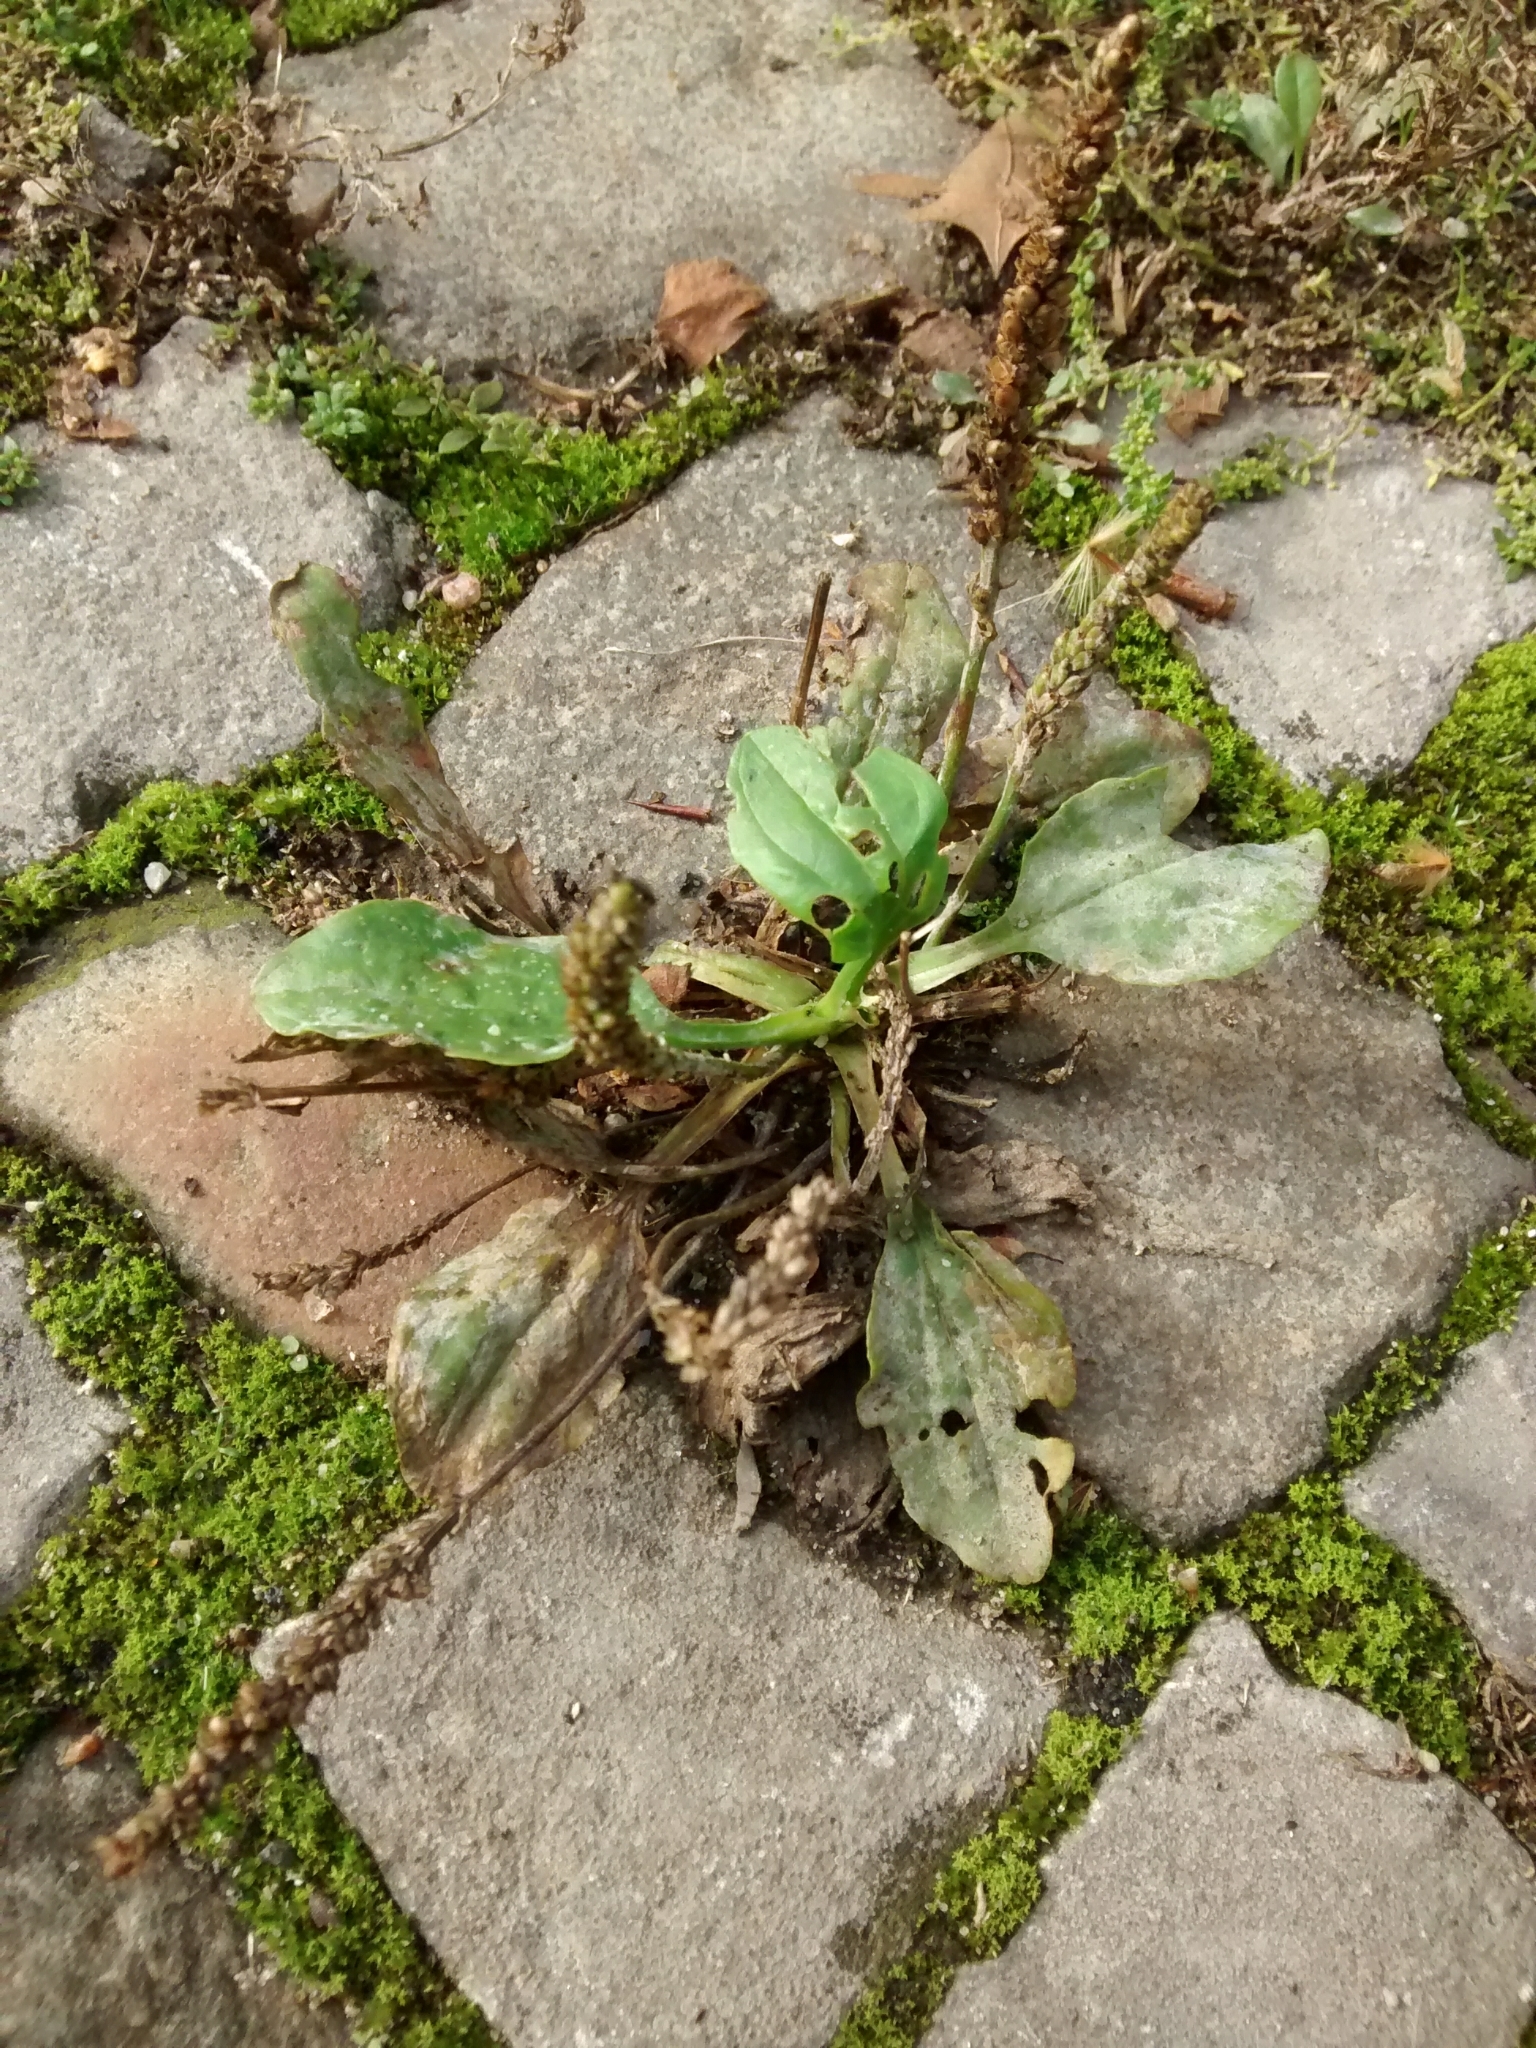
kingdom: Plantae
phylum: Tracheophyta
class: Magnoliopsida
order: Lamiales
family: Plantaginaceae
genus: Plantago
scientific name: Plantago major
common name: Common plantain
